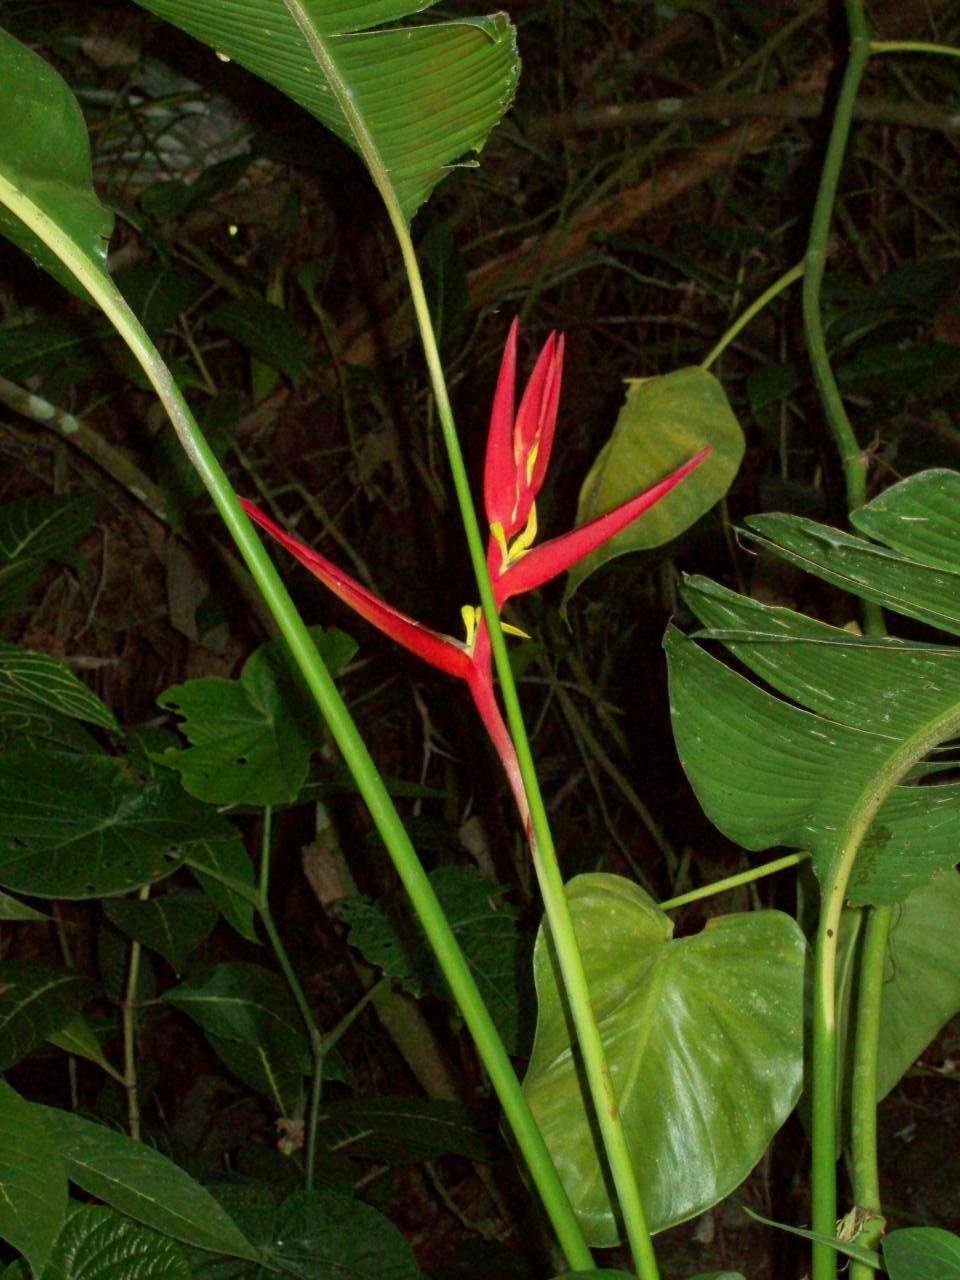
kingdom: Plantae
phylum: Tracheophyta
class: Liliopsida
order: Zingiberales
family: Heliconiaceae
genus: Heliconia
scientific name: Heliconia schiedeana
